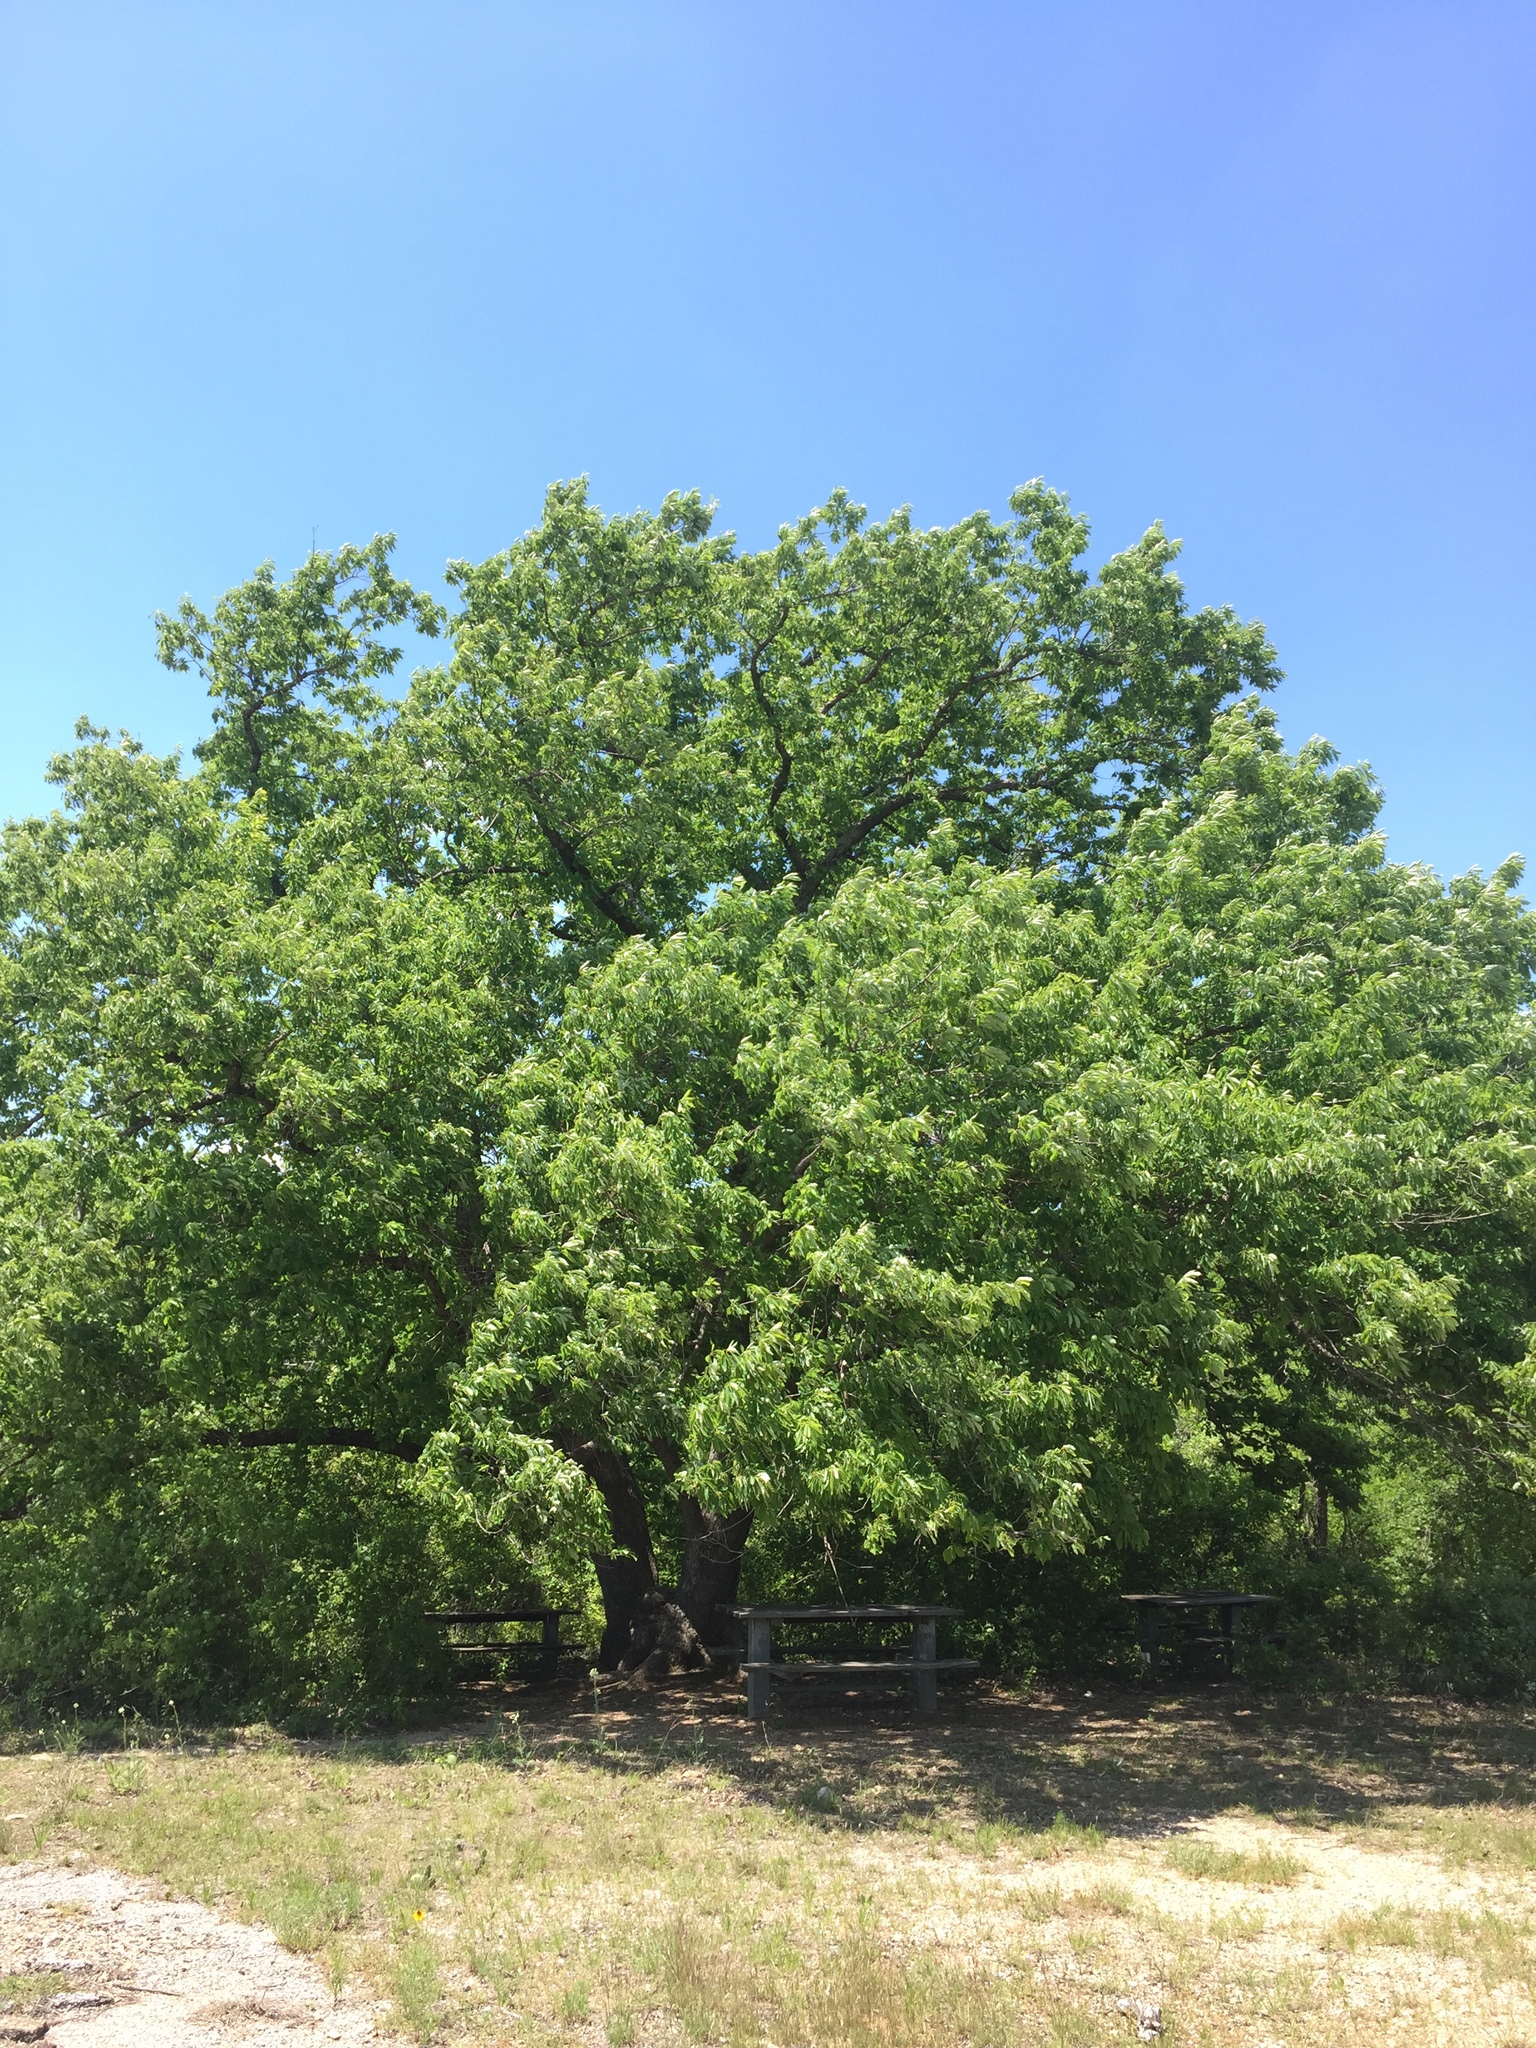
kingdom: Plantae
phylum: Tracheophyta
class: Magnoliopsida
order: Fagales
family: Fagaceae
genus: Quercus
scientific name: Quercus muehlenbergii
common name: Chinkapin oak
